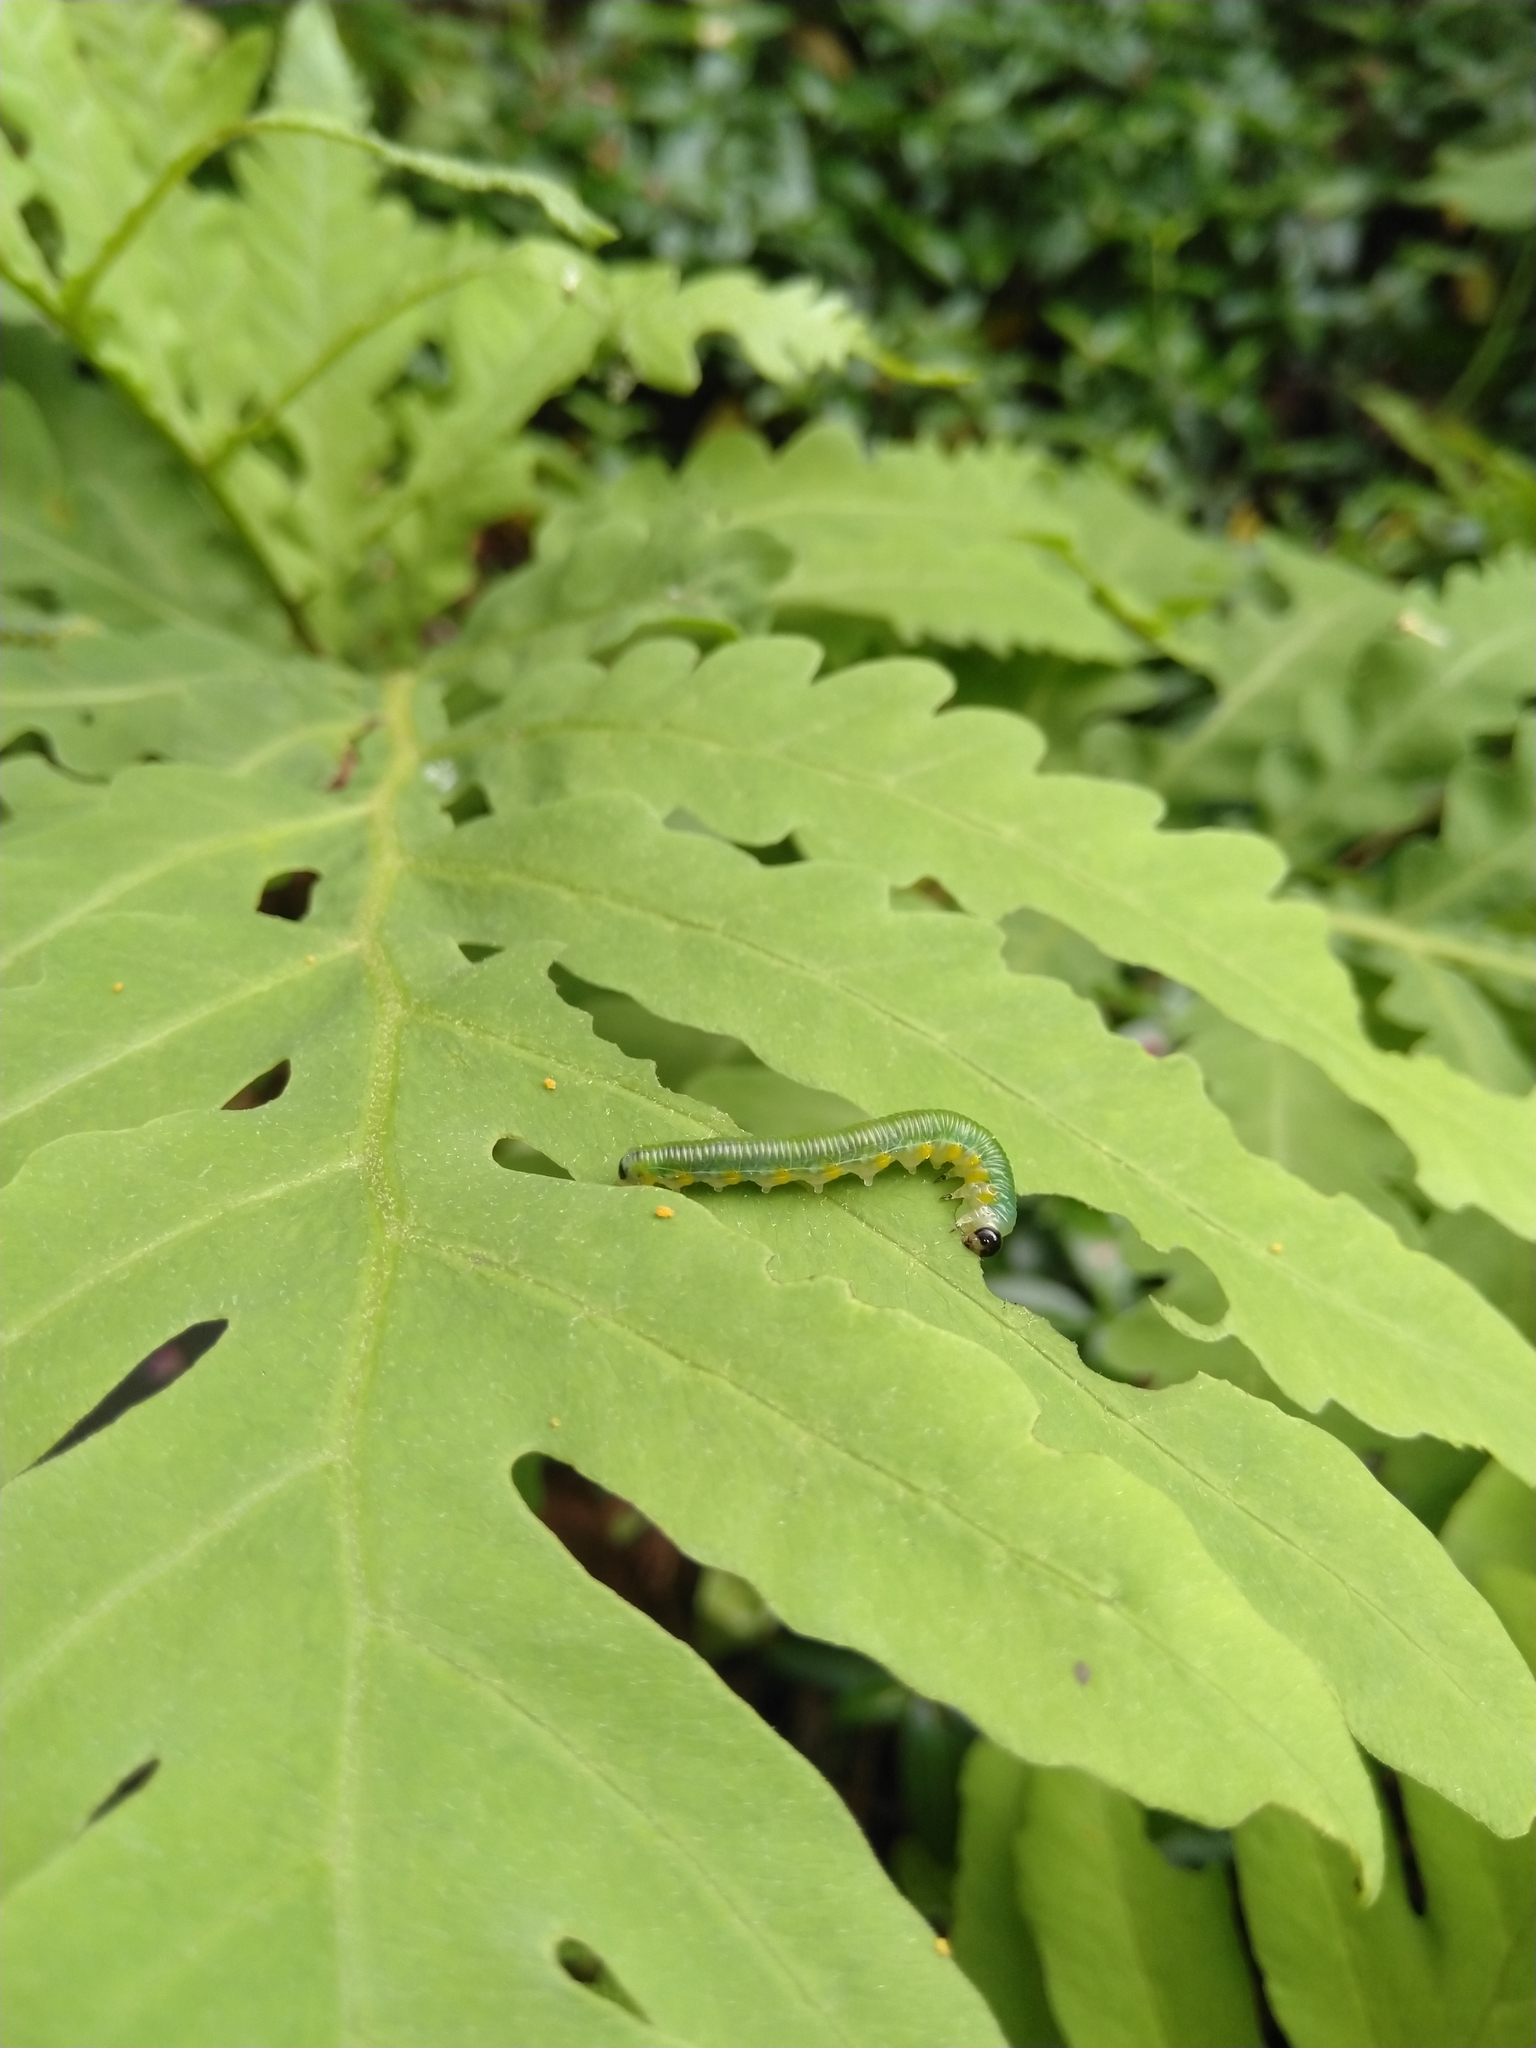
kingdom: Animalia
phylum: Arthropoda
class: Insecta
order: Hymenoptera
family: Tenthredinidae
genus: Strongylogaster
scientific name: Strongylogaster
